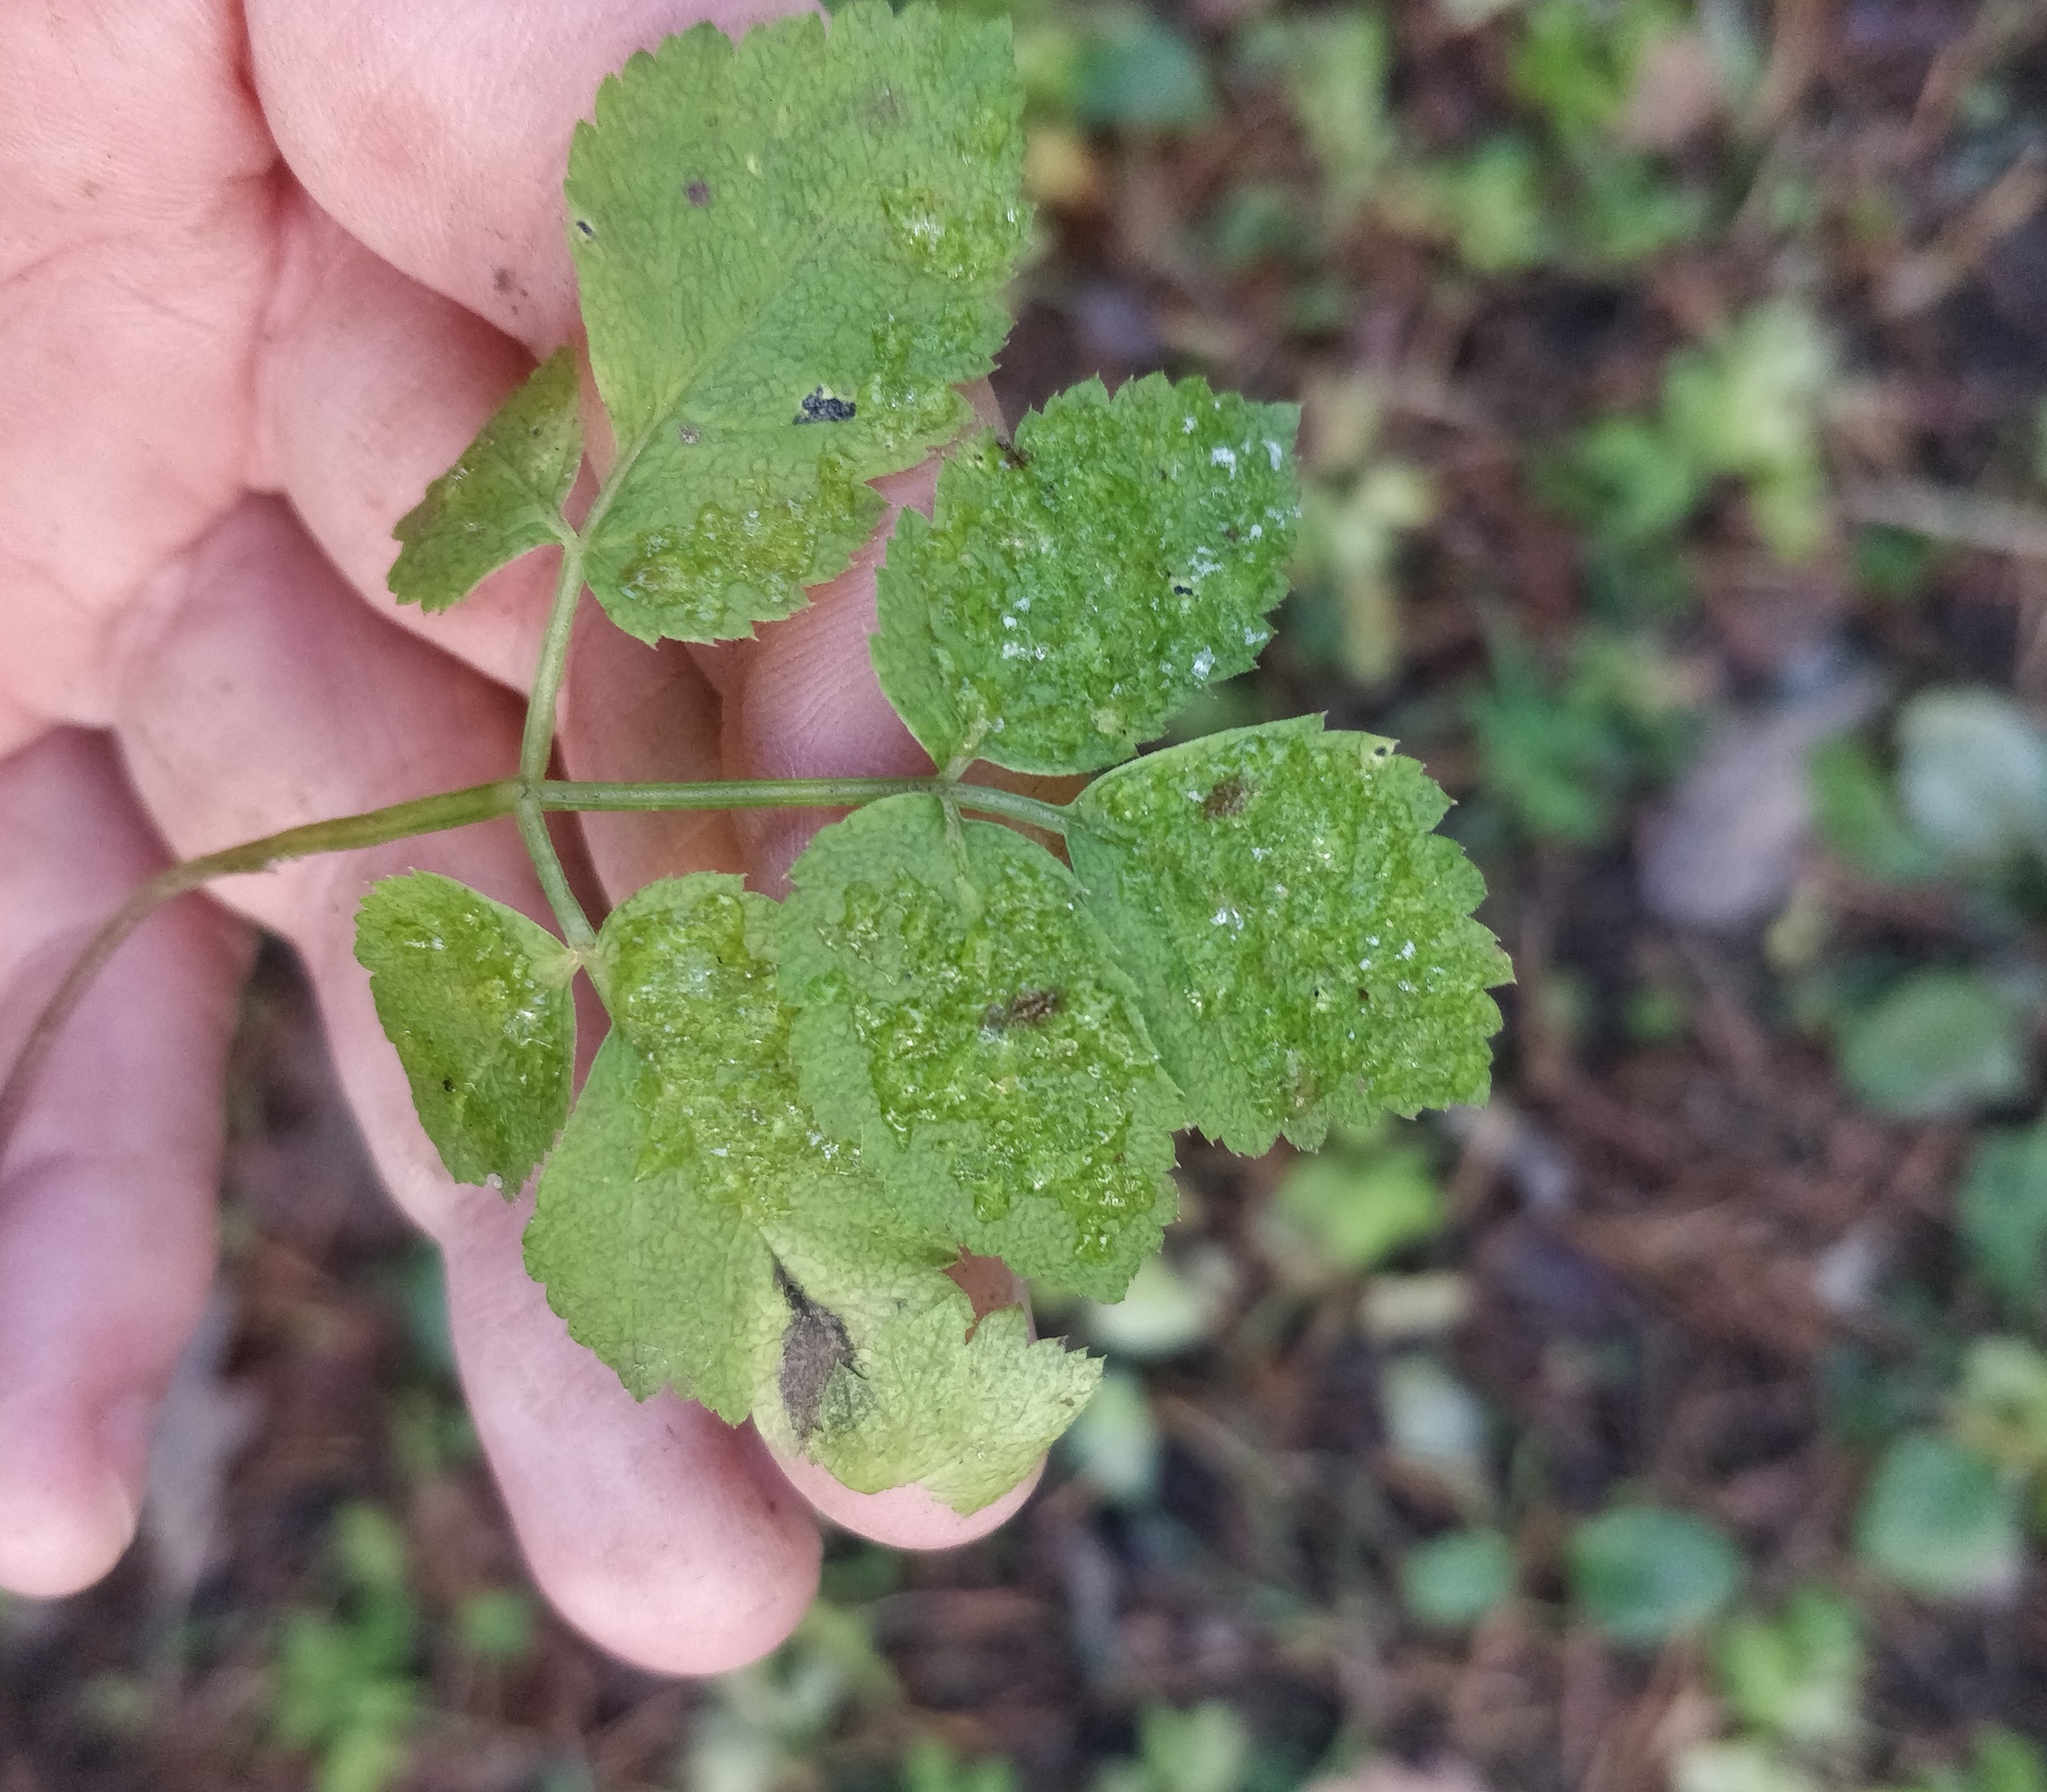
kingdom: Plantae
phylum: Tracheophyta
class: Magnoliopsida
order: Apiales
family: Apiaceae
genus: Aegopodium
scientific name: Aegopodium podagraria
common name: Ground-elder
